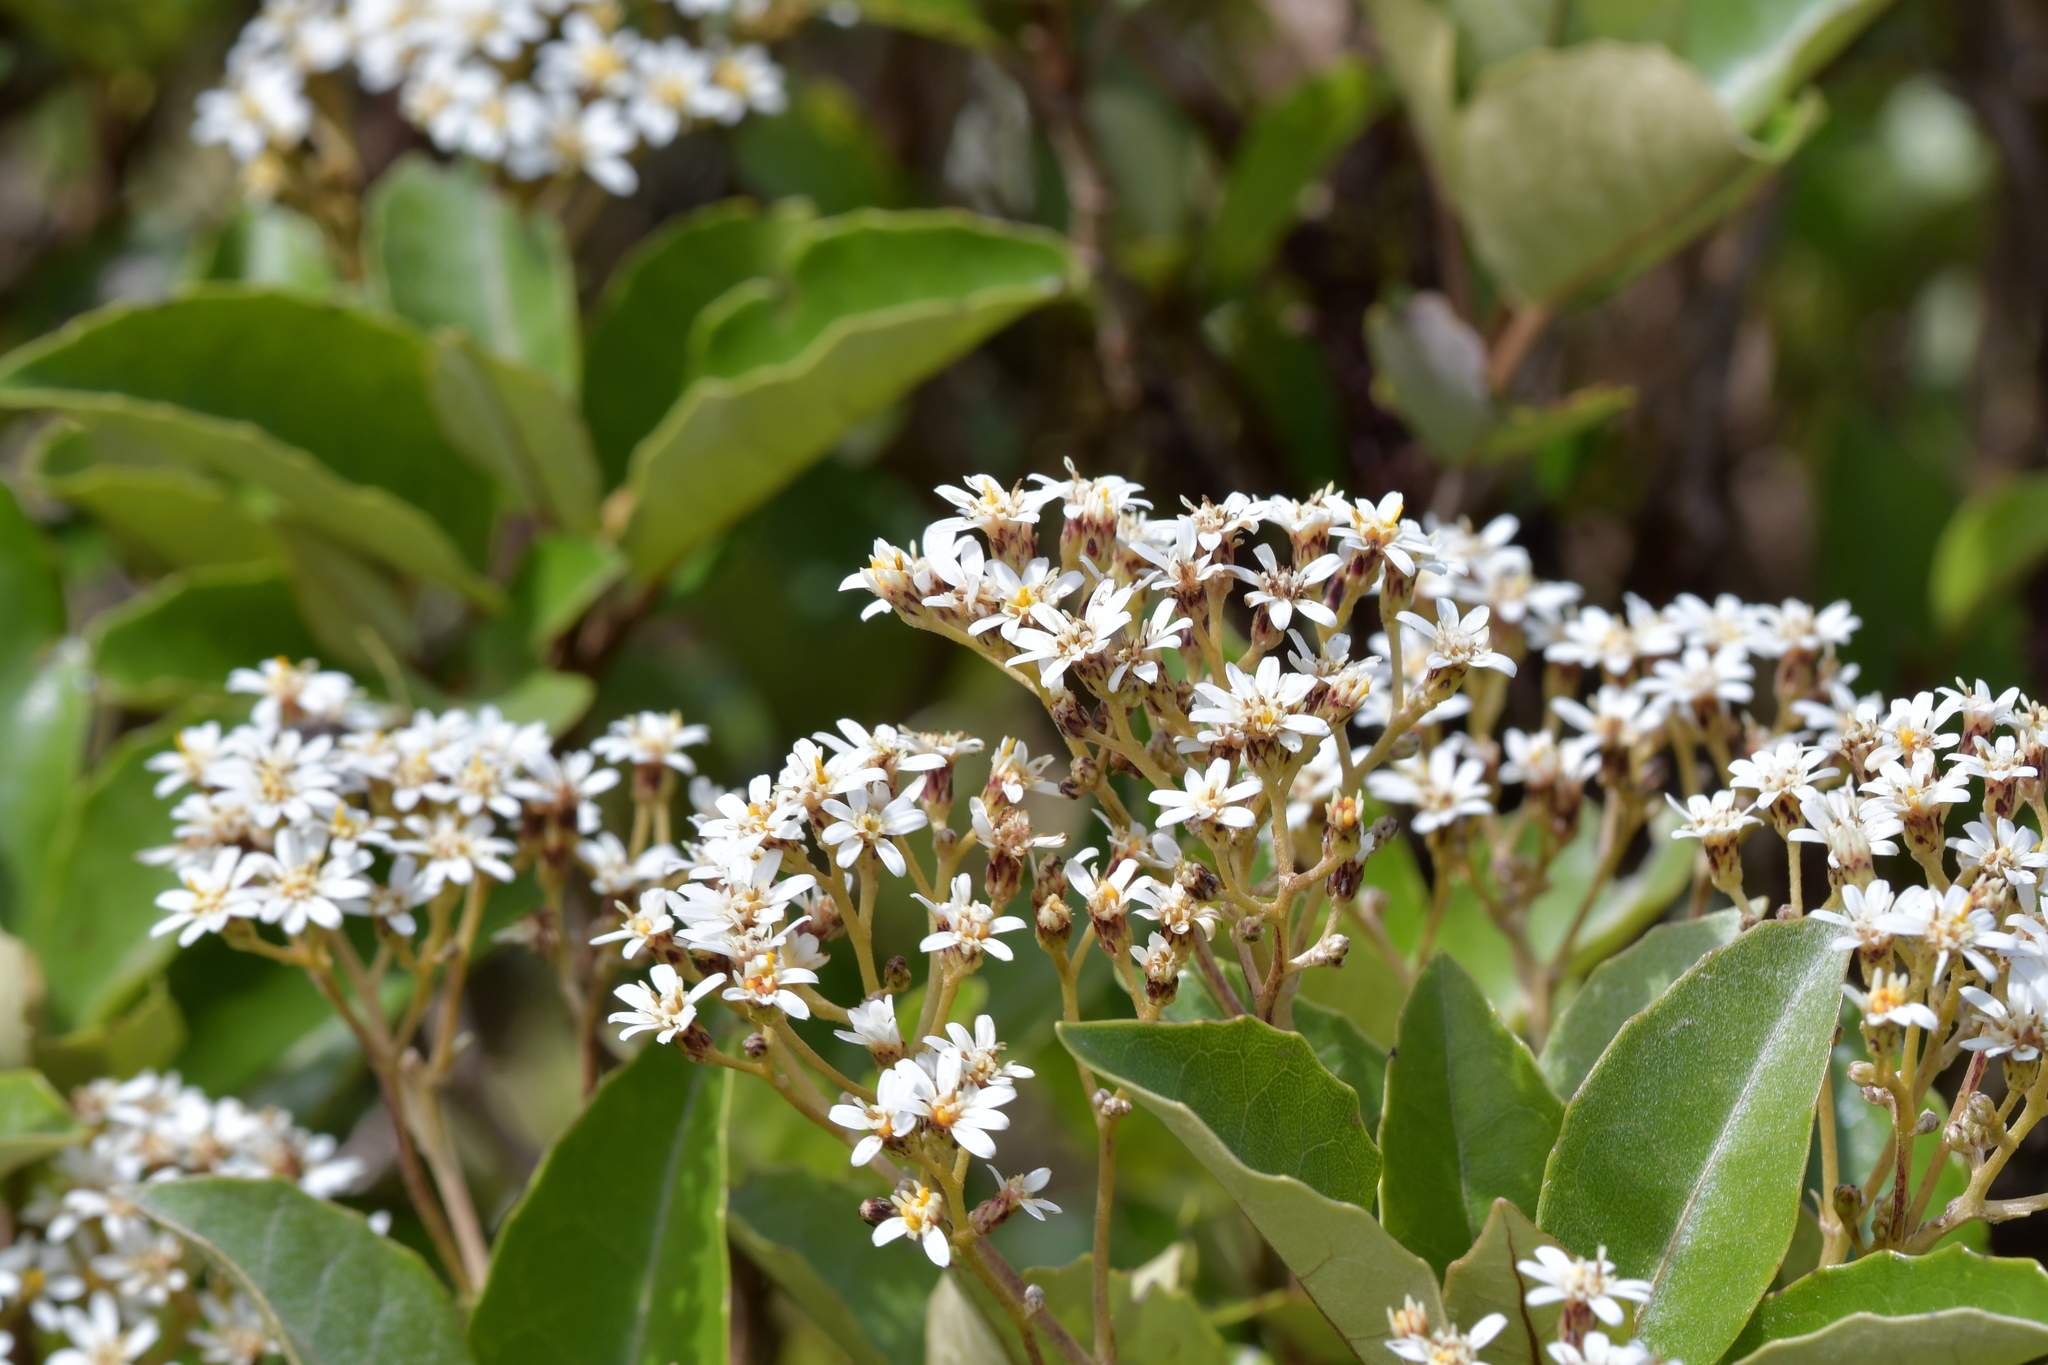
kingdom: Plantae
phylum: Tracheophyta
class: Magnoliopsida
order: Asterales
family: Asteraceae
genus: Olearia
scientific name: Olearia arborescens
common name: Glossy tree daisy
